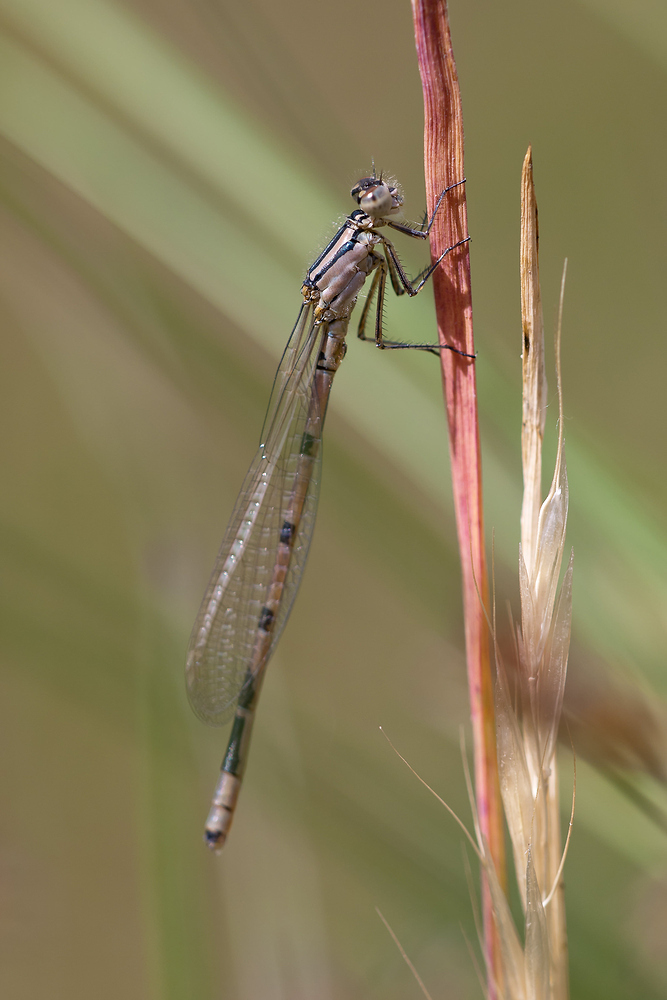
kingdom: Animalia
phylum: Arthropoda
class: Insecta
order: Odonata
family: Coenagrionidae
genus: Enallagma
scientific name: Enallagma cyathigerum
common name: Common blue damselfly
